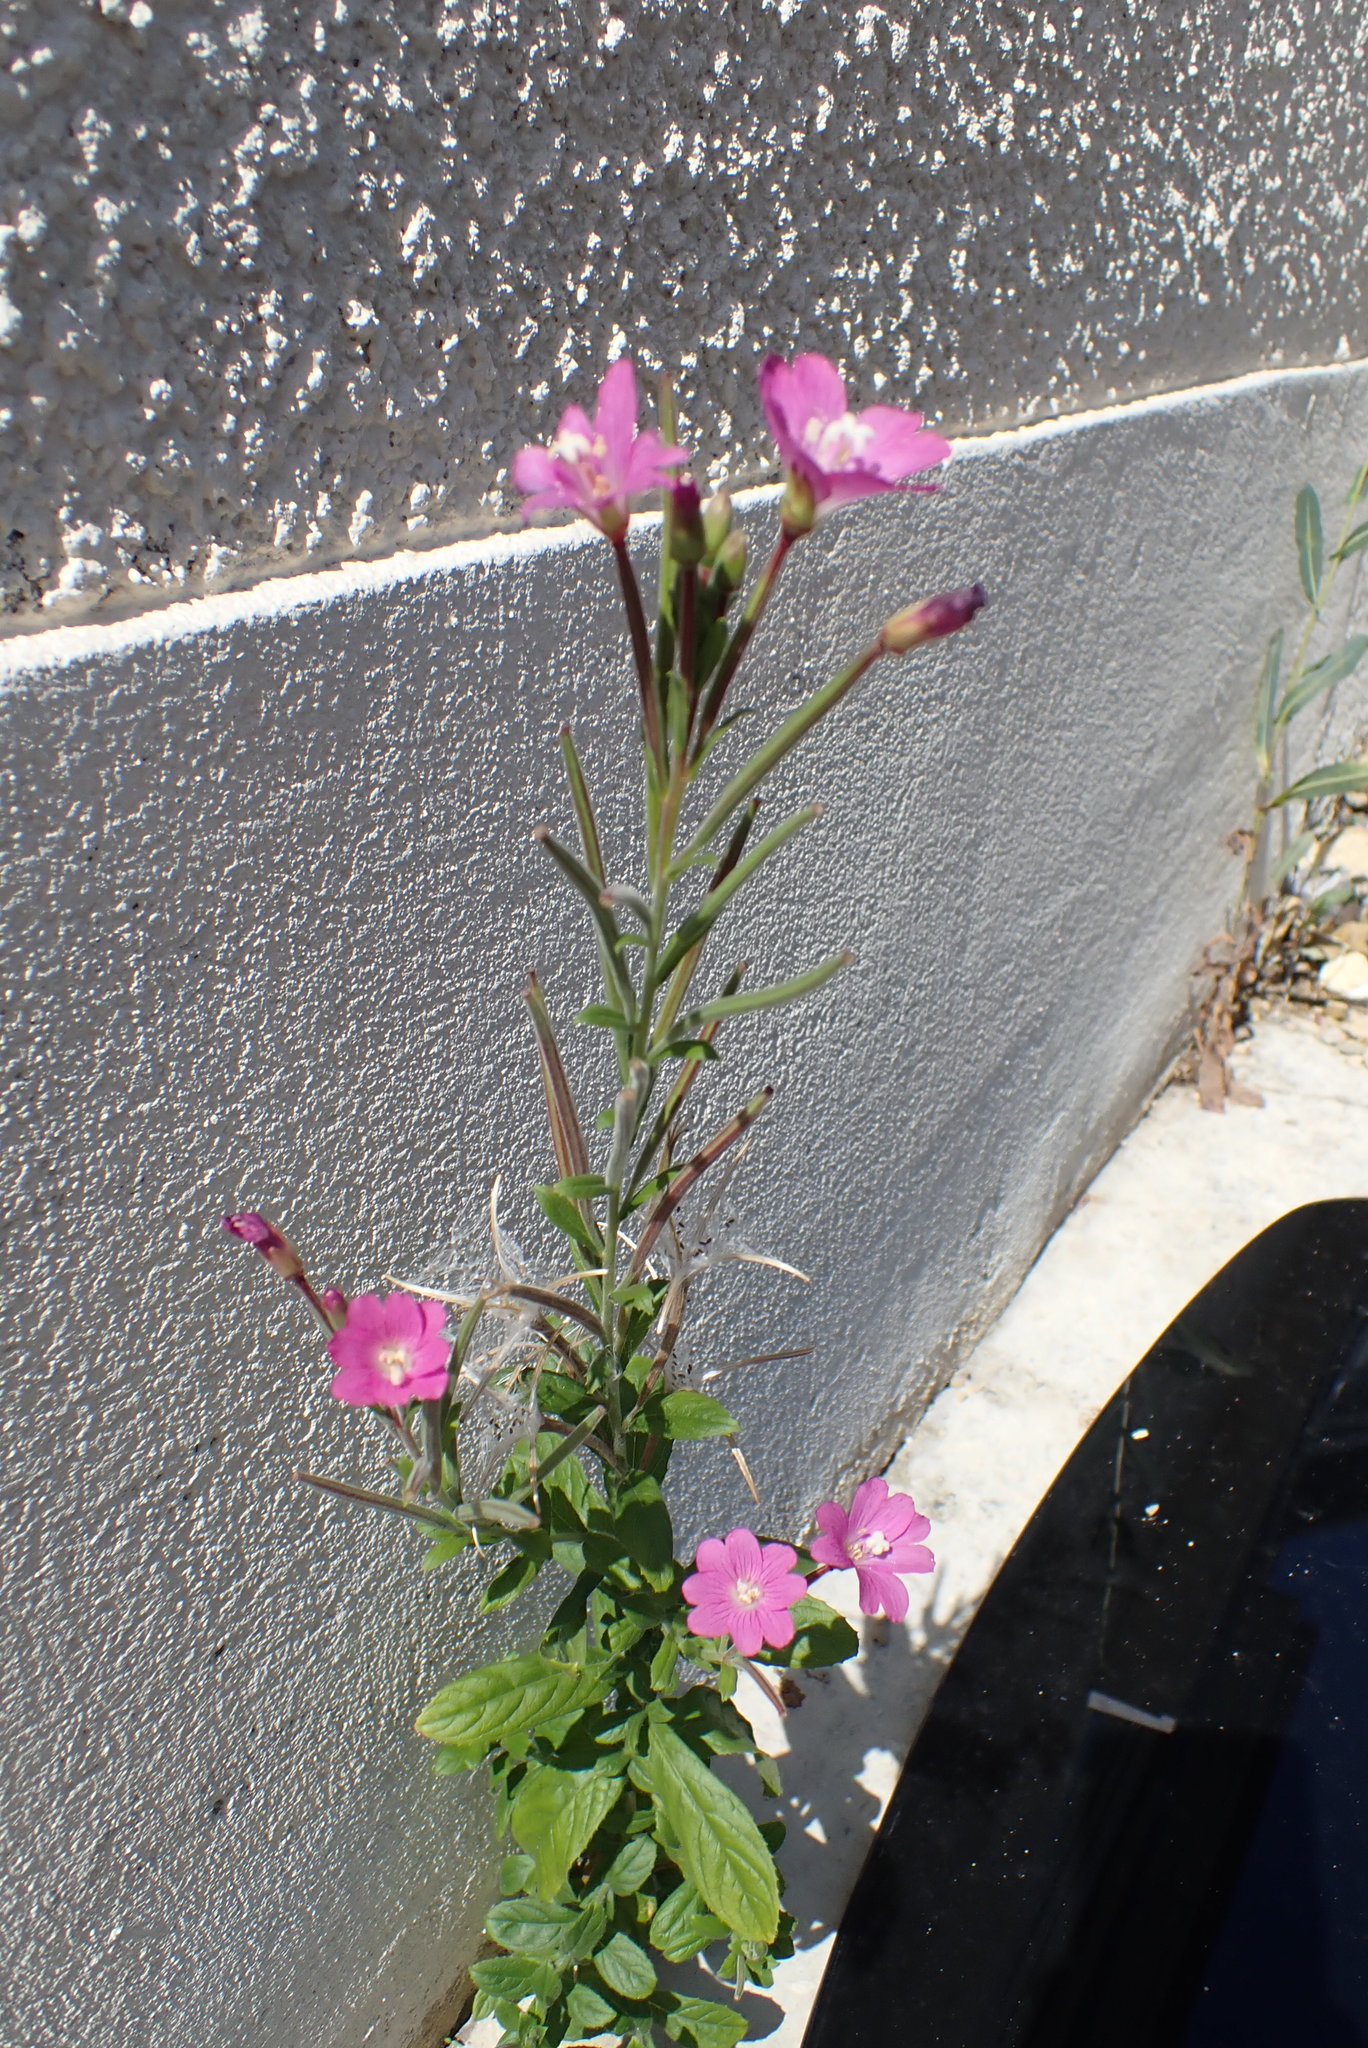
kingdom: Plantae
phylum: Tracheophyta
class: Magnoliopsida
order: Myrtales
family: Onagraceae
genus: Epilobium
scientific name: Epilobium hirsutum
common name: Great willowherb
